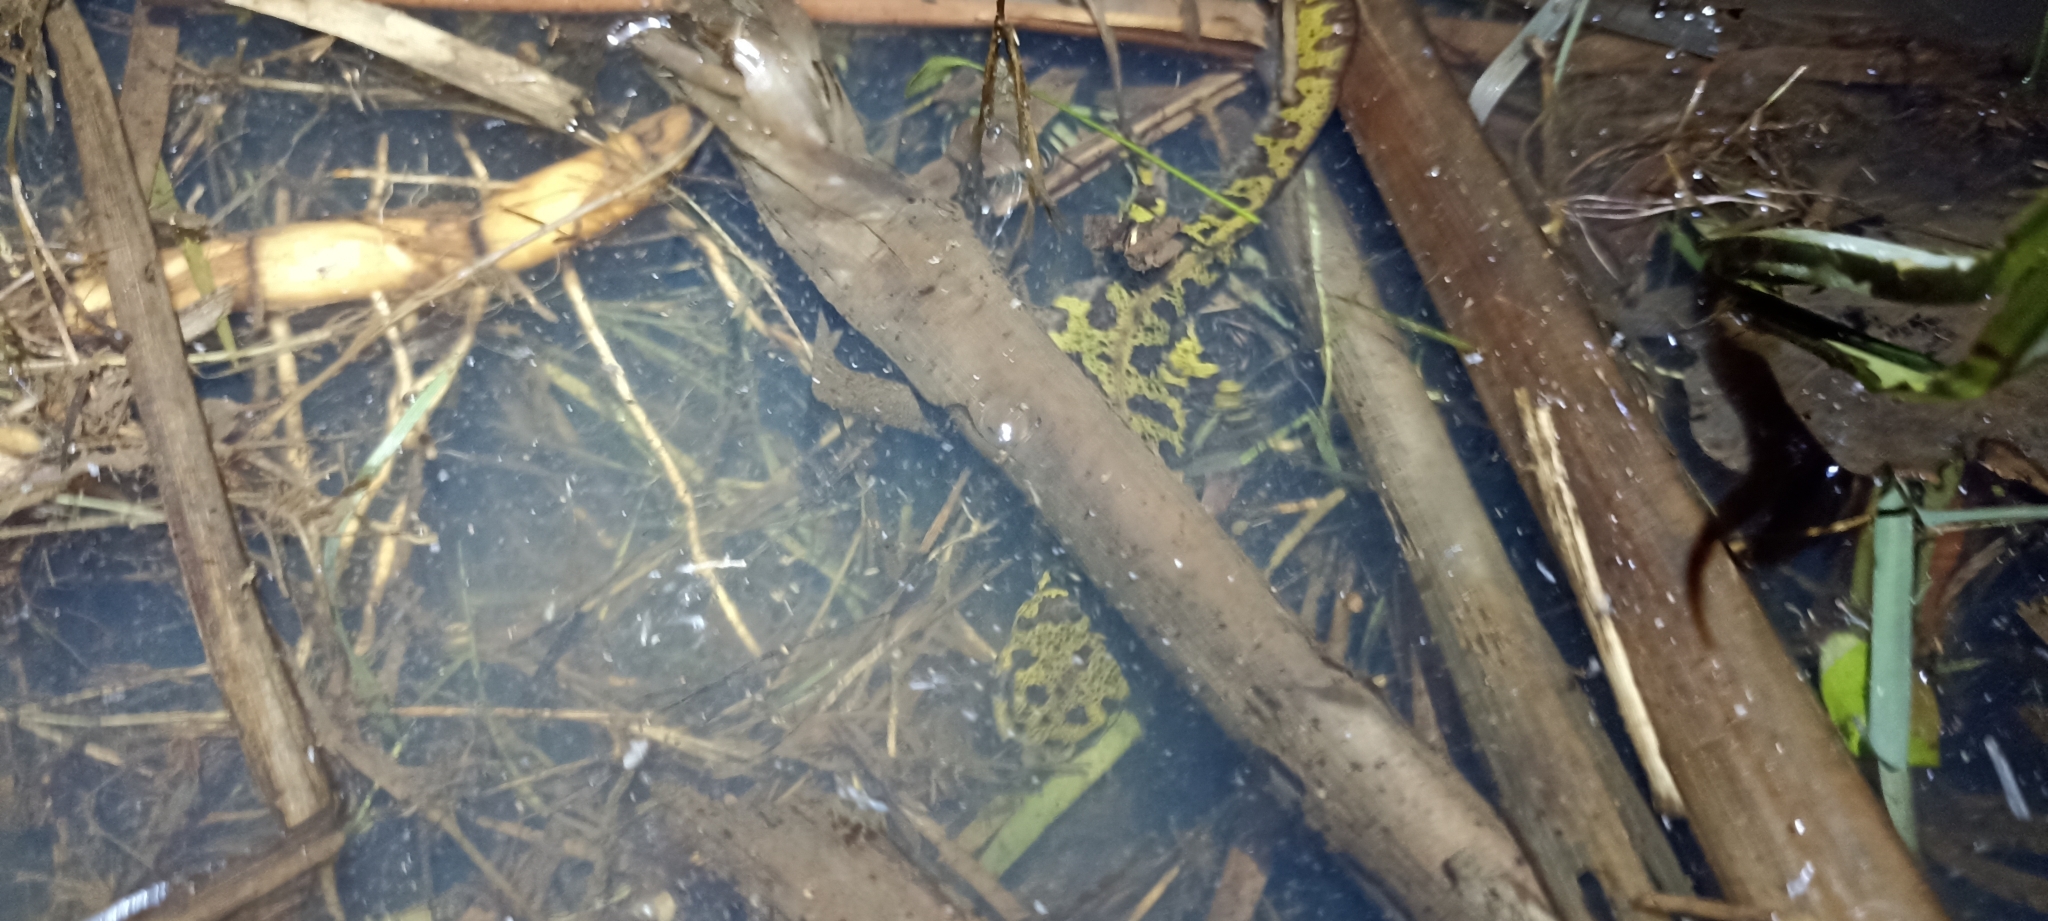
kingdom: Animalia
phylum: Chordata
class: Amphibia
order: Caudata
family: Salamandridae
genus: Triturus
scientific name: Triturus marmoratus
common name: Marbled newt
